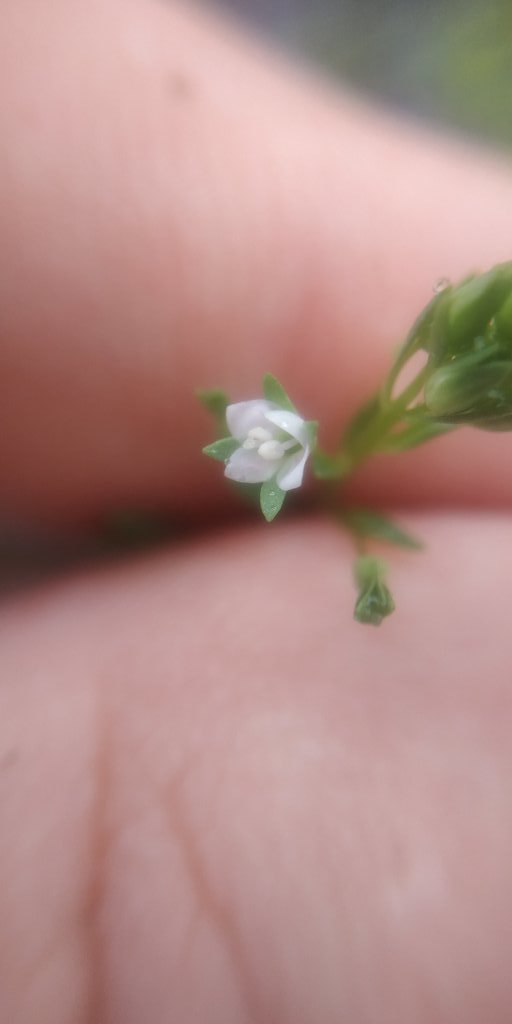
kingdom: Plantae
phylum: Tracheophyta
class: Magnoliopsida
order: Lamiales
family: Plantaginaceae
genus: Veronica
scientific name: Veronica anagallis-aquatica
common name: Water speedwell
